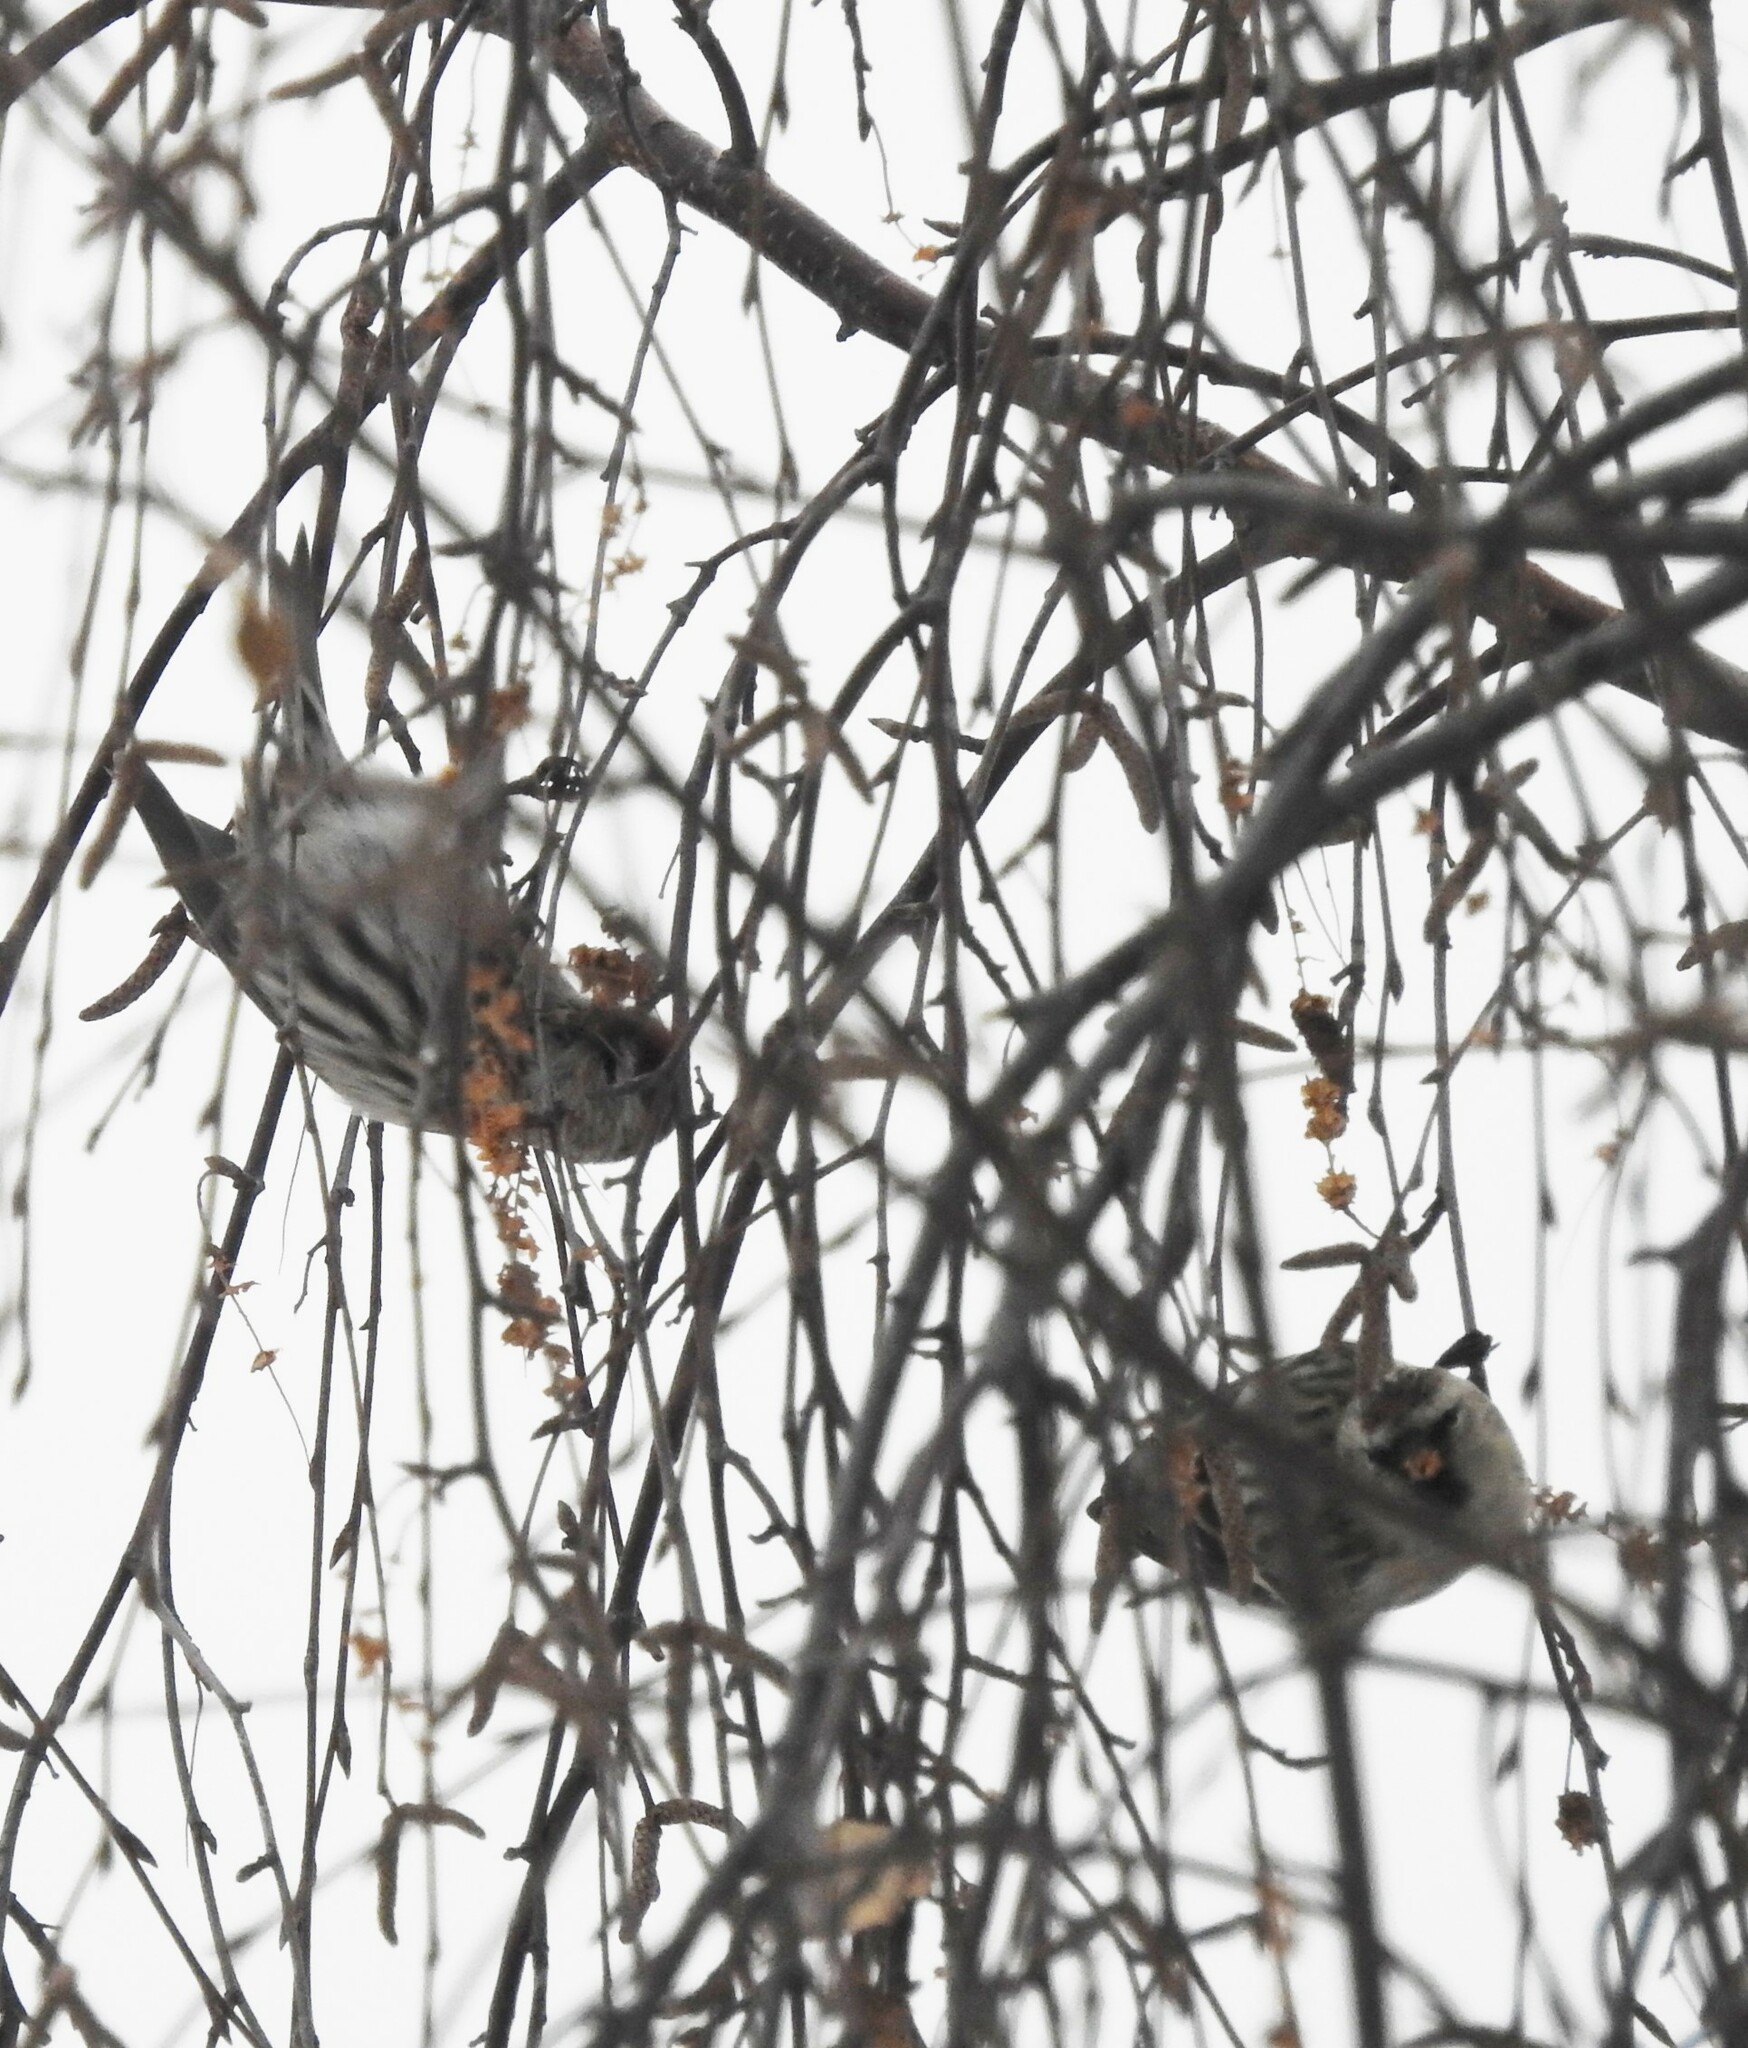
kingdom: Animalia
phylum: Chordata
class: Aves
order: Passeriformes
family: Fringillidae
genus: Acanthis
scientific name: Acanthis flammea
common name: Common redpoll
